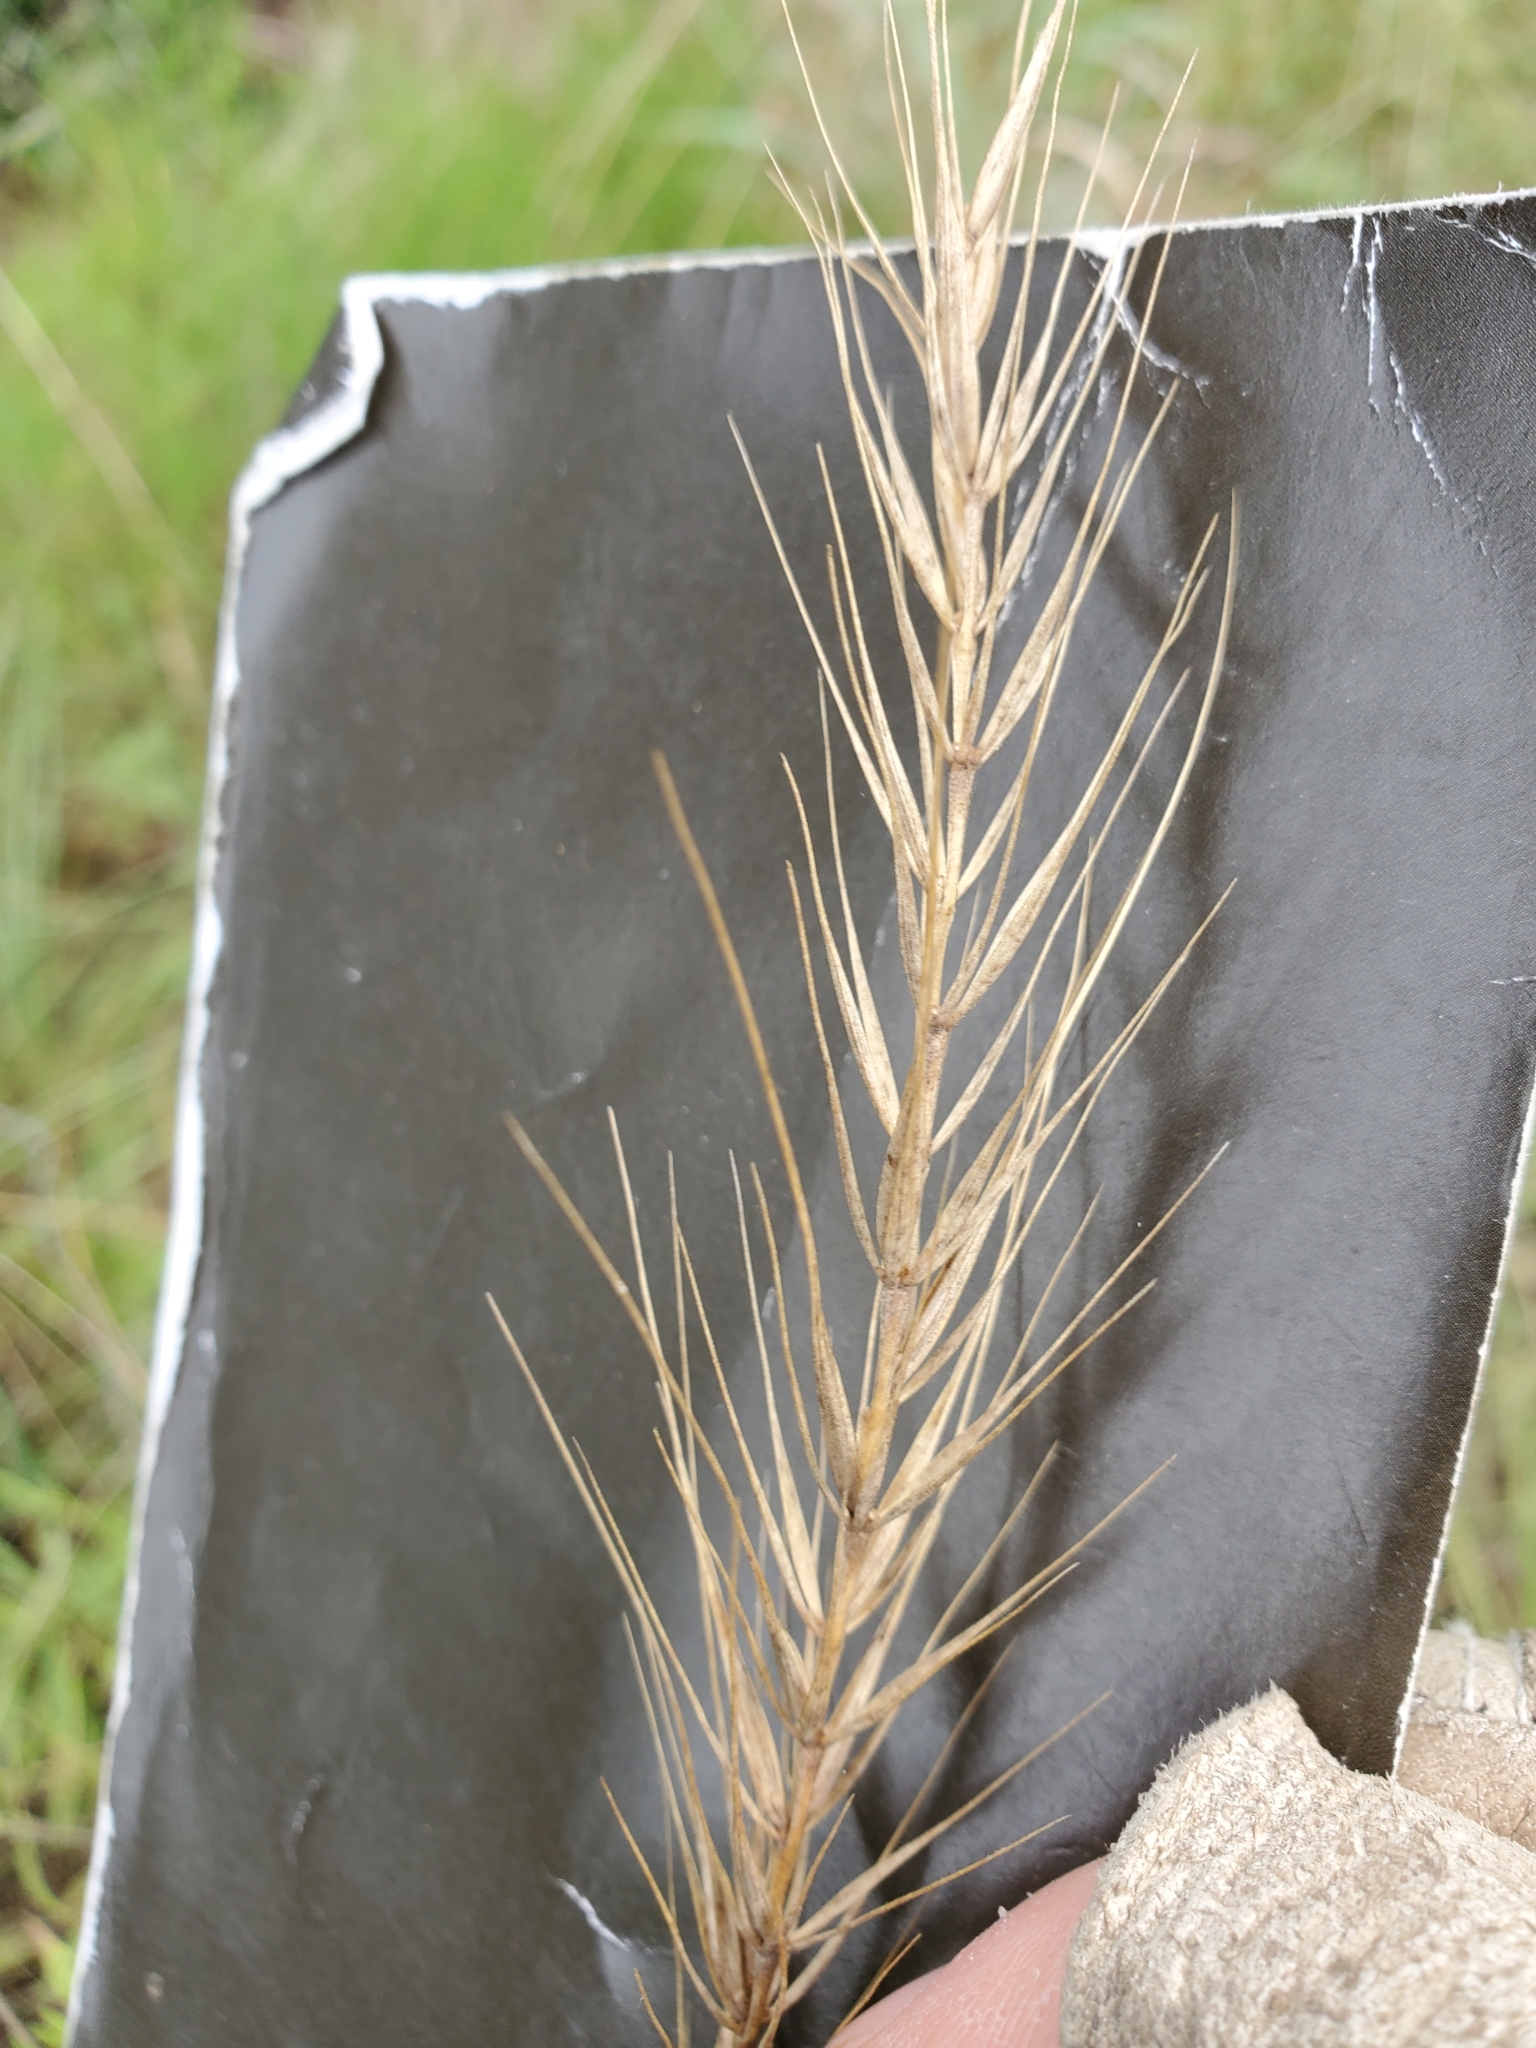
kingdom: Plantae
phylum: Tracheophyta
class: Liliopsida
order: Poales
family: Poaceae
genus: Elymus
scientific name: Elymus interruptus
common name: Southwestern wild rye
